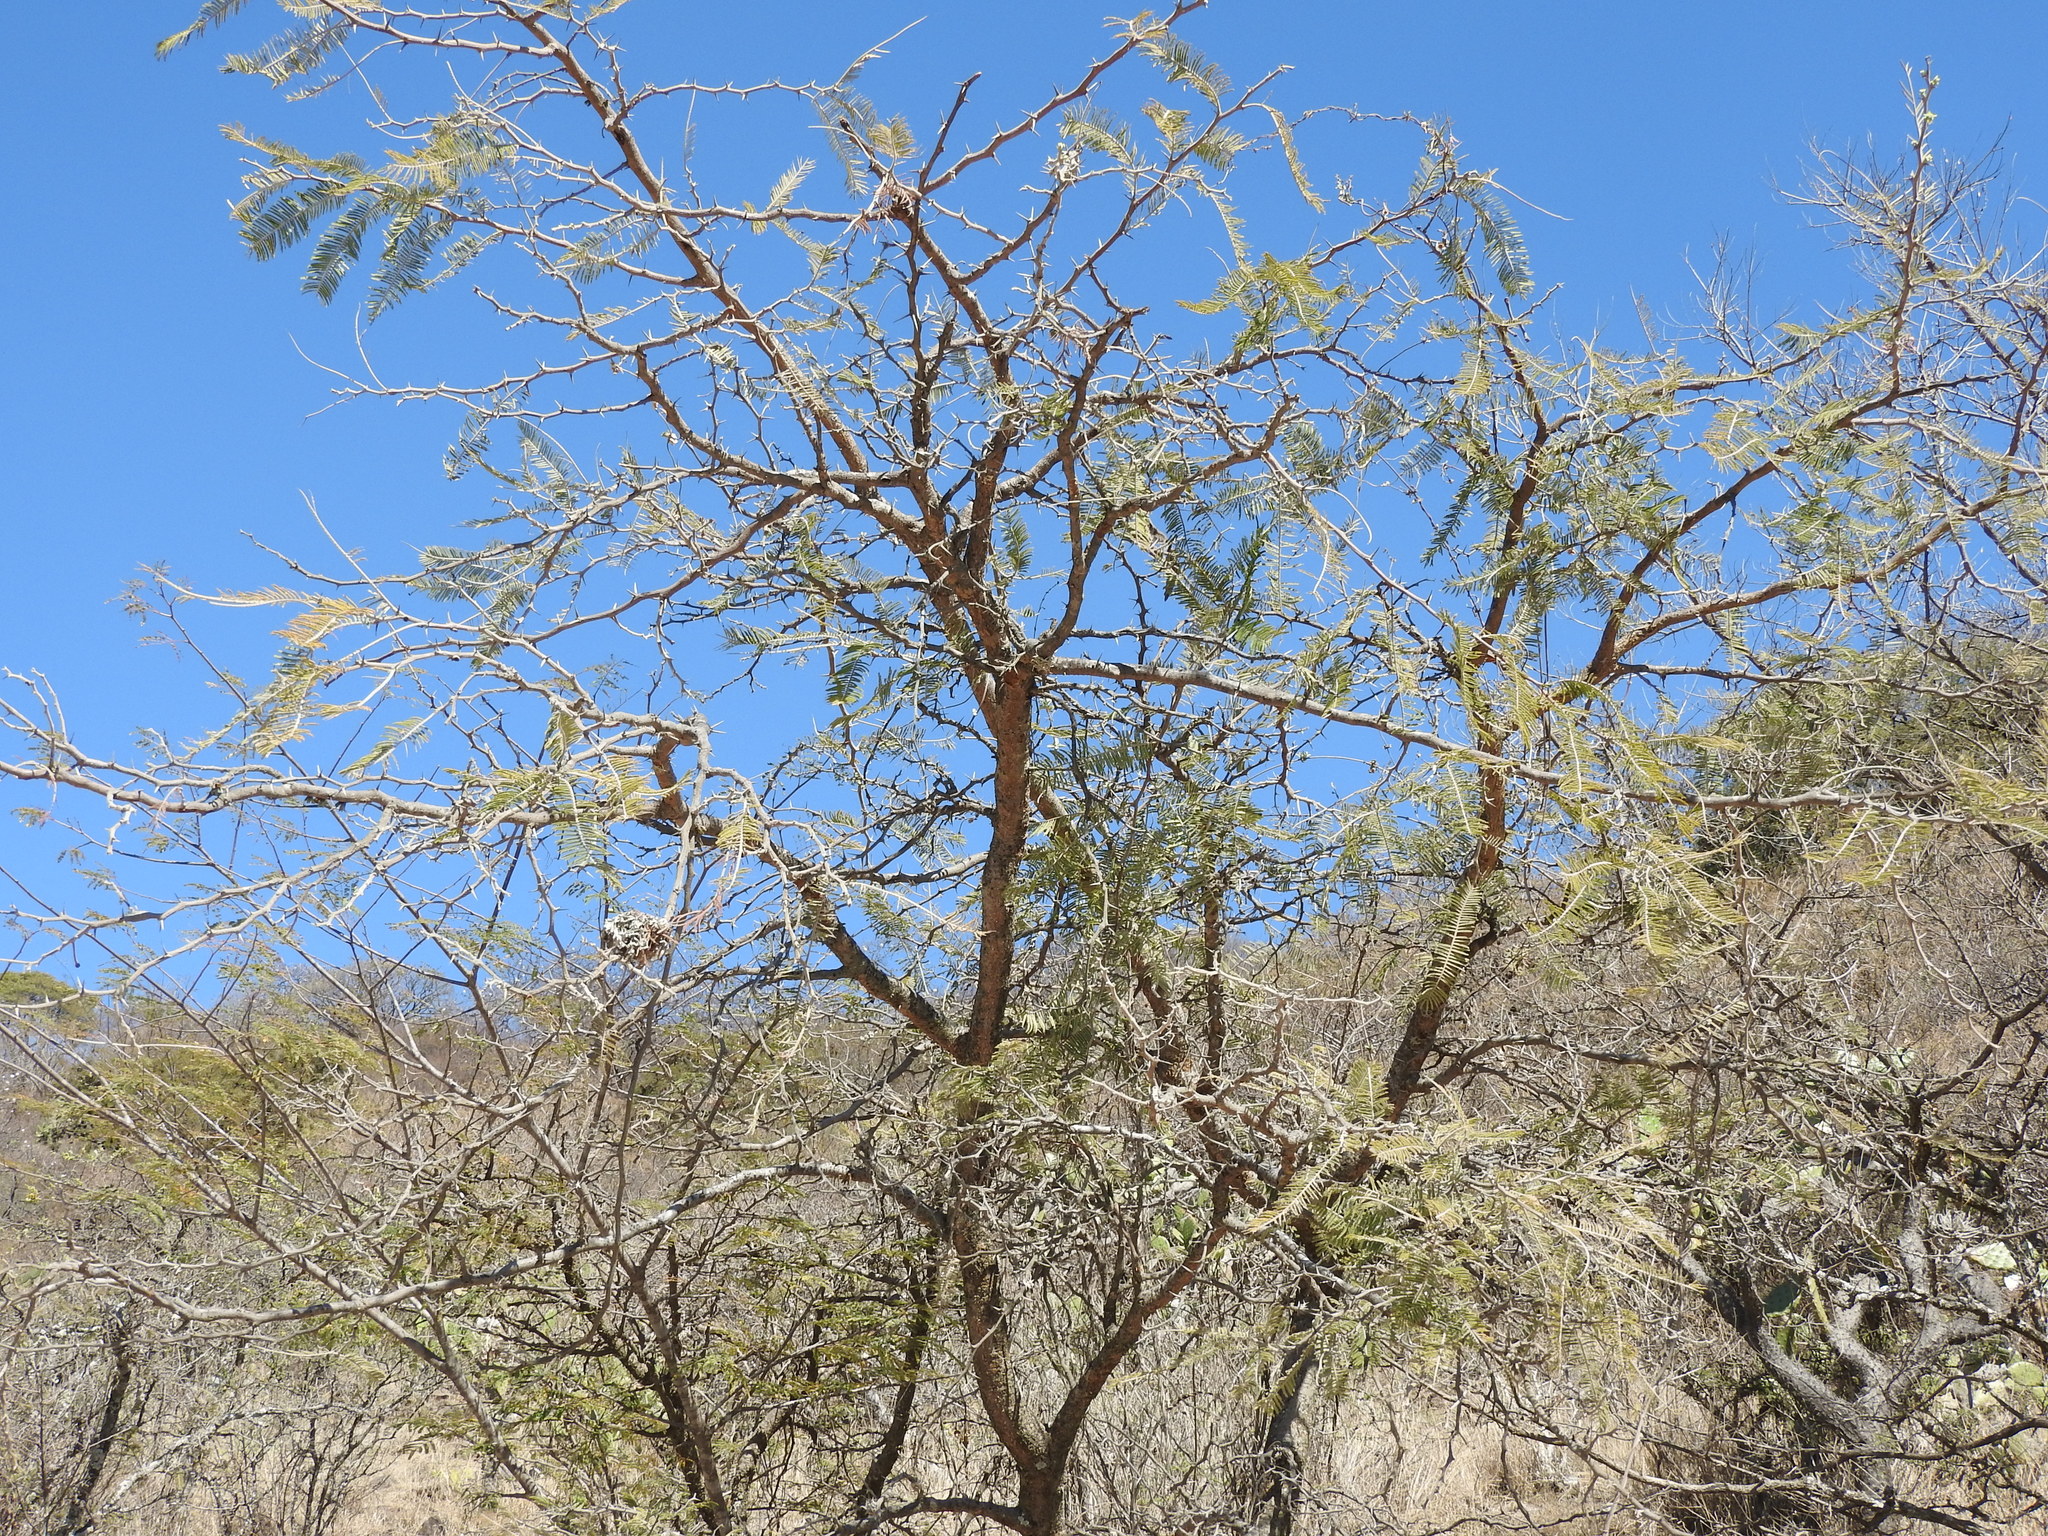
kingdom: Plantae
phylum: Tracheophyta
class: Magnoliopsida
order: Fabales
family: Fabaceae
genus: Vachellia
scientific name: Vachellia pennatula
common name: Fern-leaf acacia
